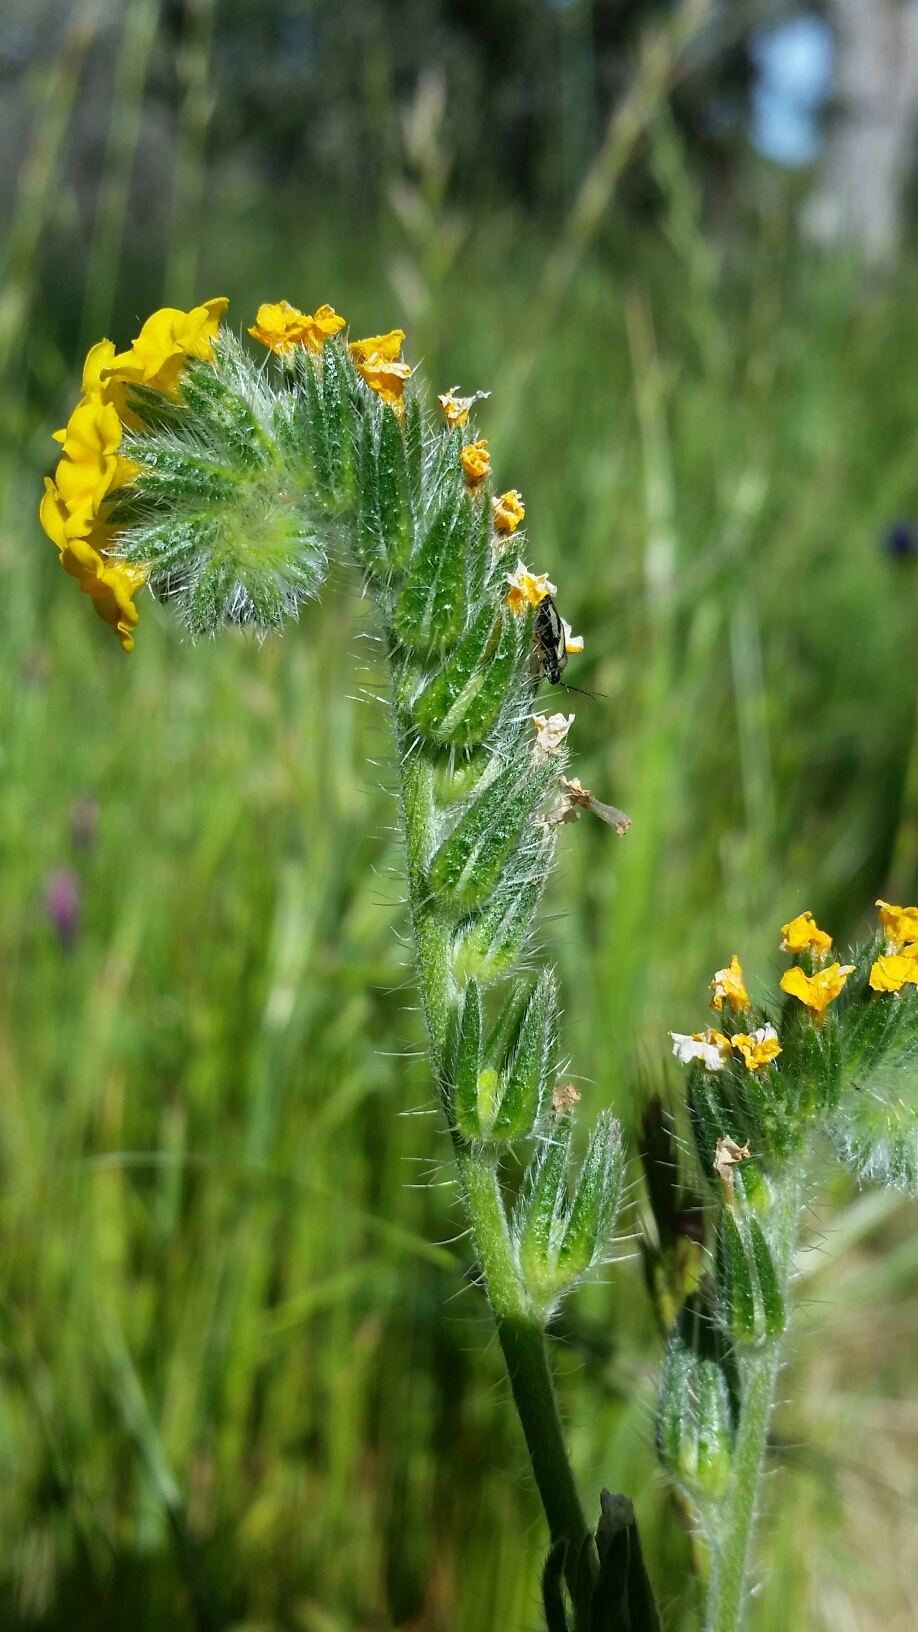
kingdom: Plantae
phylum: Tracheophyta
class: Magnoliopsida
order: Boraginales
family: Boraginaceae
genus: Amsinckia
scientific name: Amsinckia menziesii
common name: Menzies' fiddleneck
